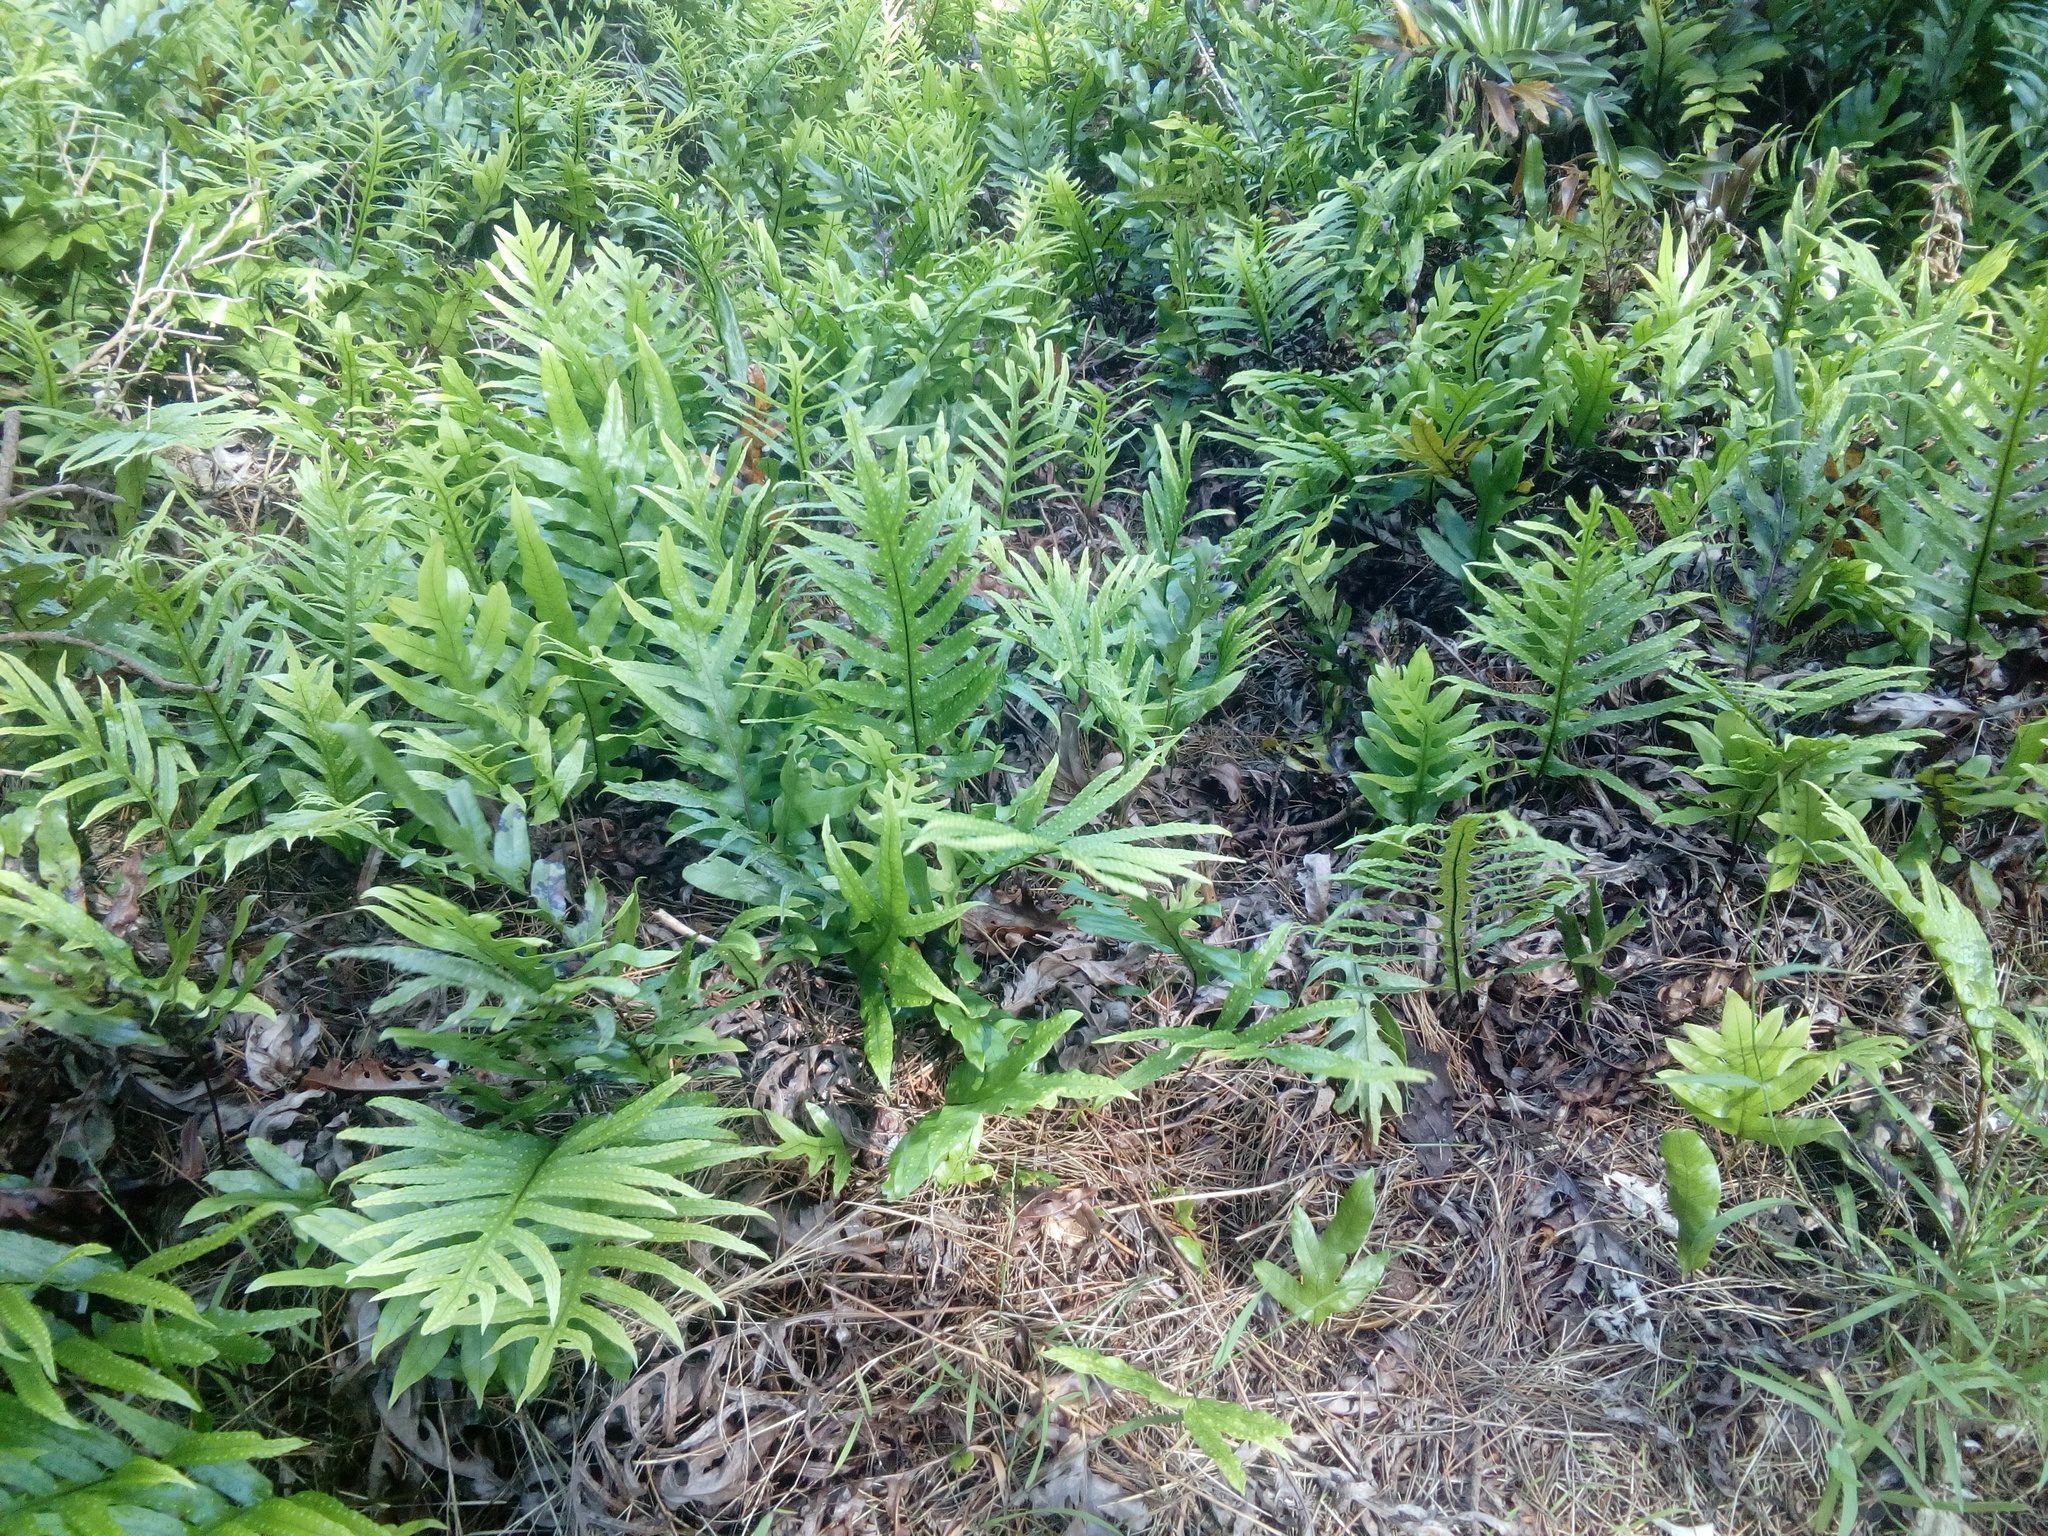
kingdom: Plantae
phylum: Tracheophyta
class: Polypodiopsida
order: Polypodiales
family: Polypodiaceae
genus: Lecanopteris
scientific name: Lecanopteris pustulata
